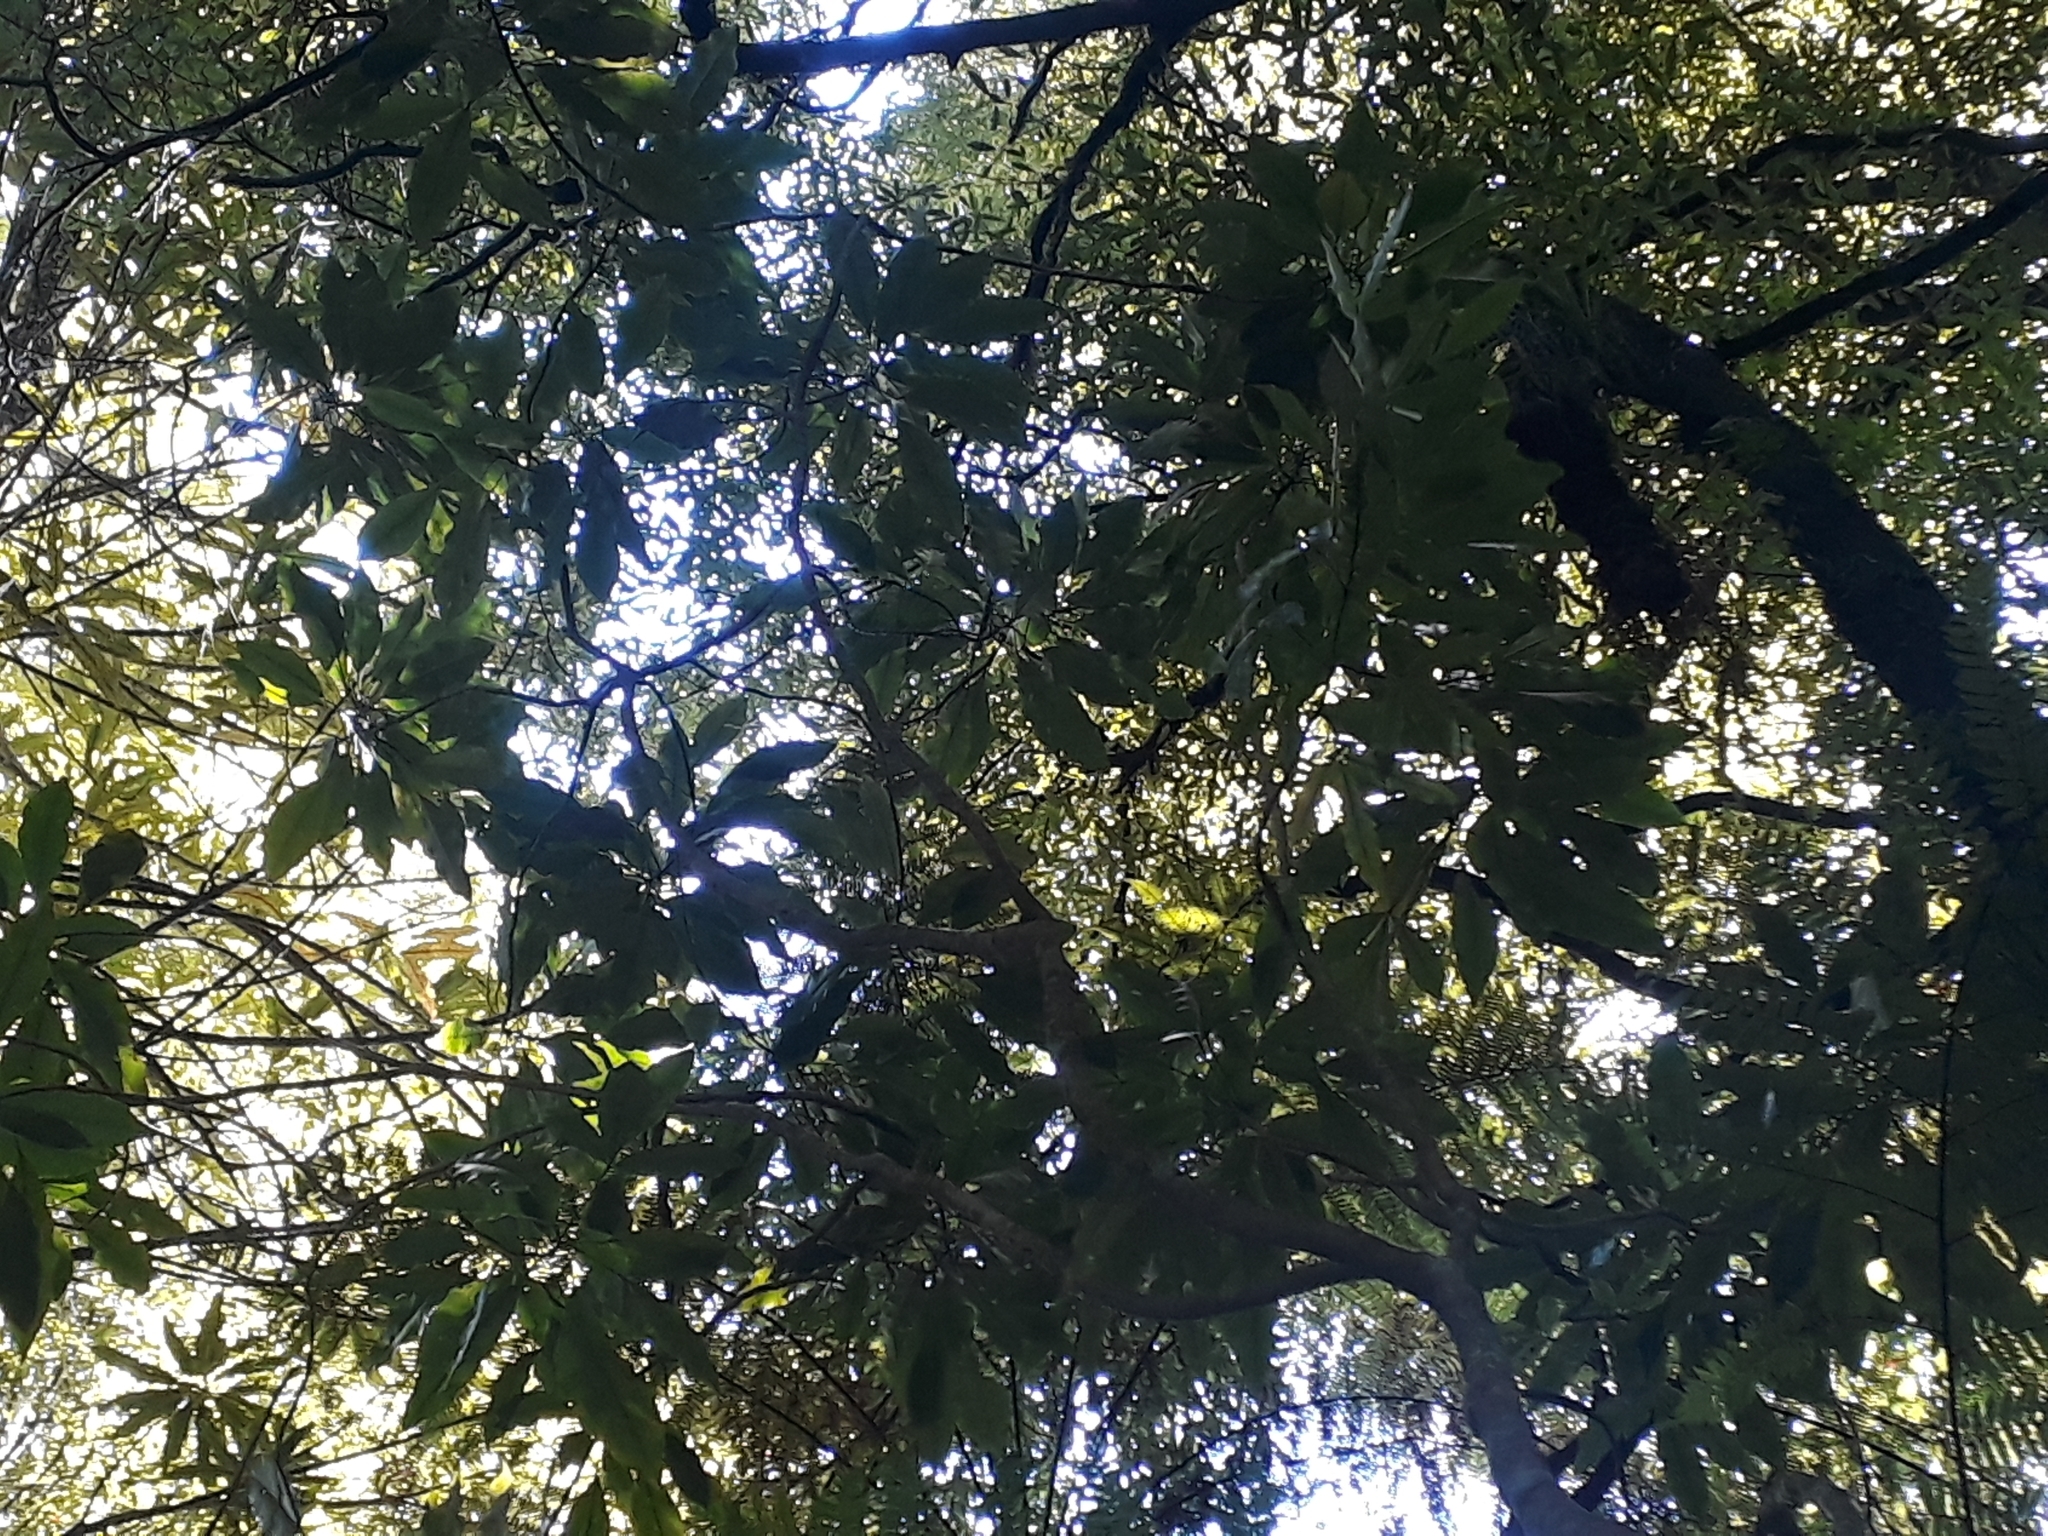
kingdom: Plantae
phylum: Tracheophyta
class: Magnoliopsida
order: Apiales
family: Araliaceae
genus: Raukaua
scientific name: Raukaua edgerleyi
